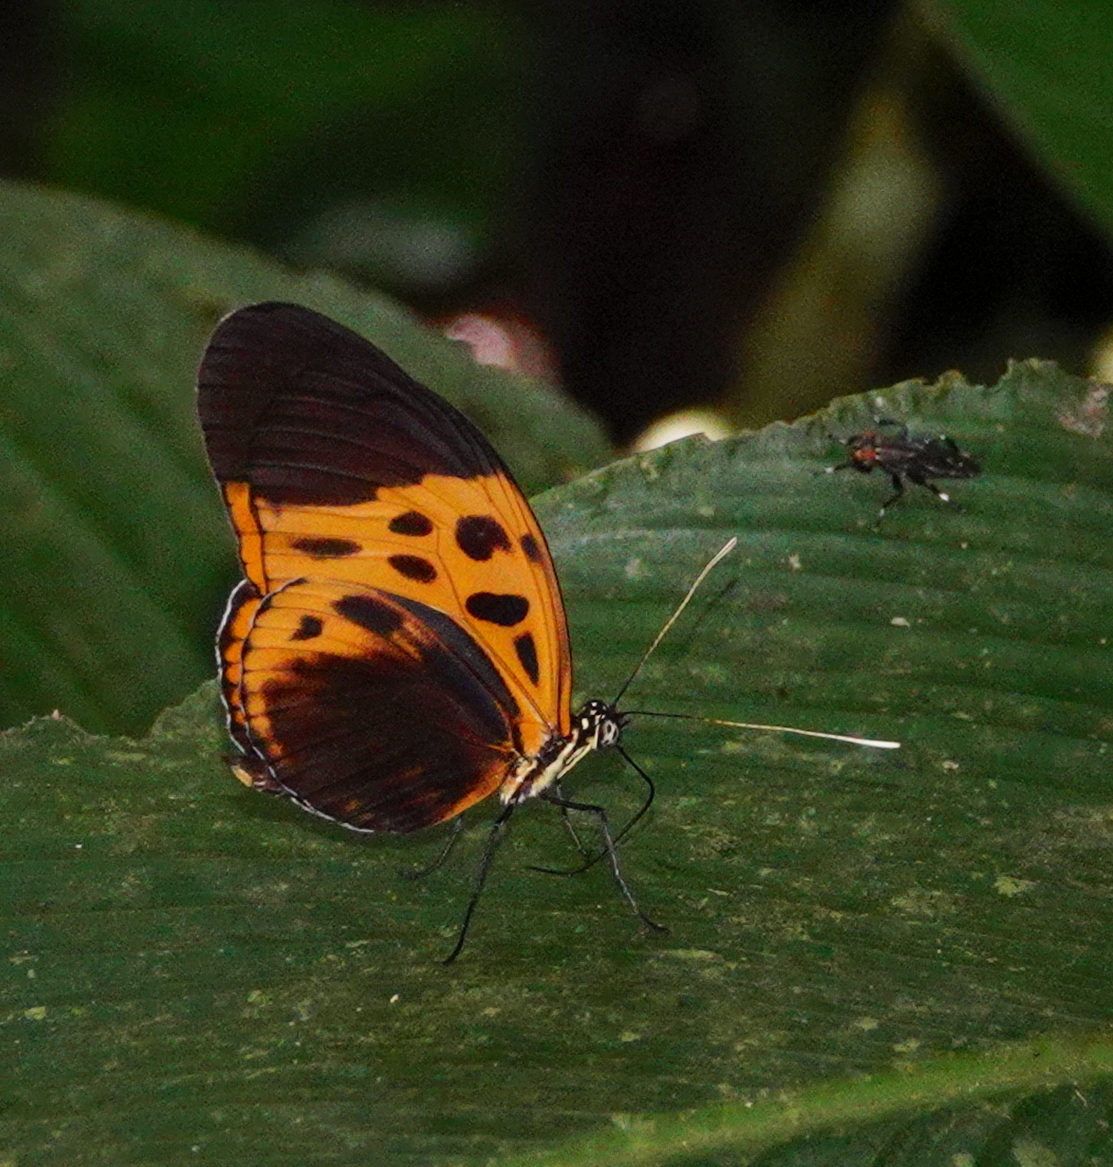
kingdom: Animalia
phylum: Arthropoda
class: Insecta
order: Lepidoptera
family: Nymphalidae
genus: Heliconius
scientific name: Heliconius numatus
